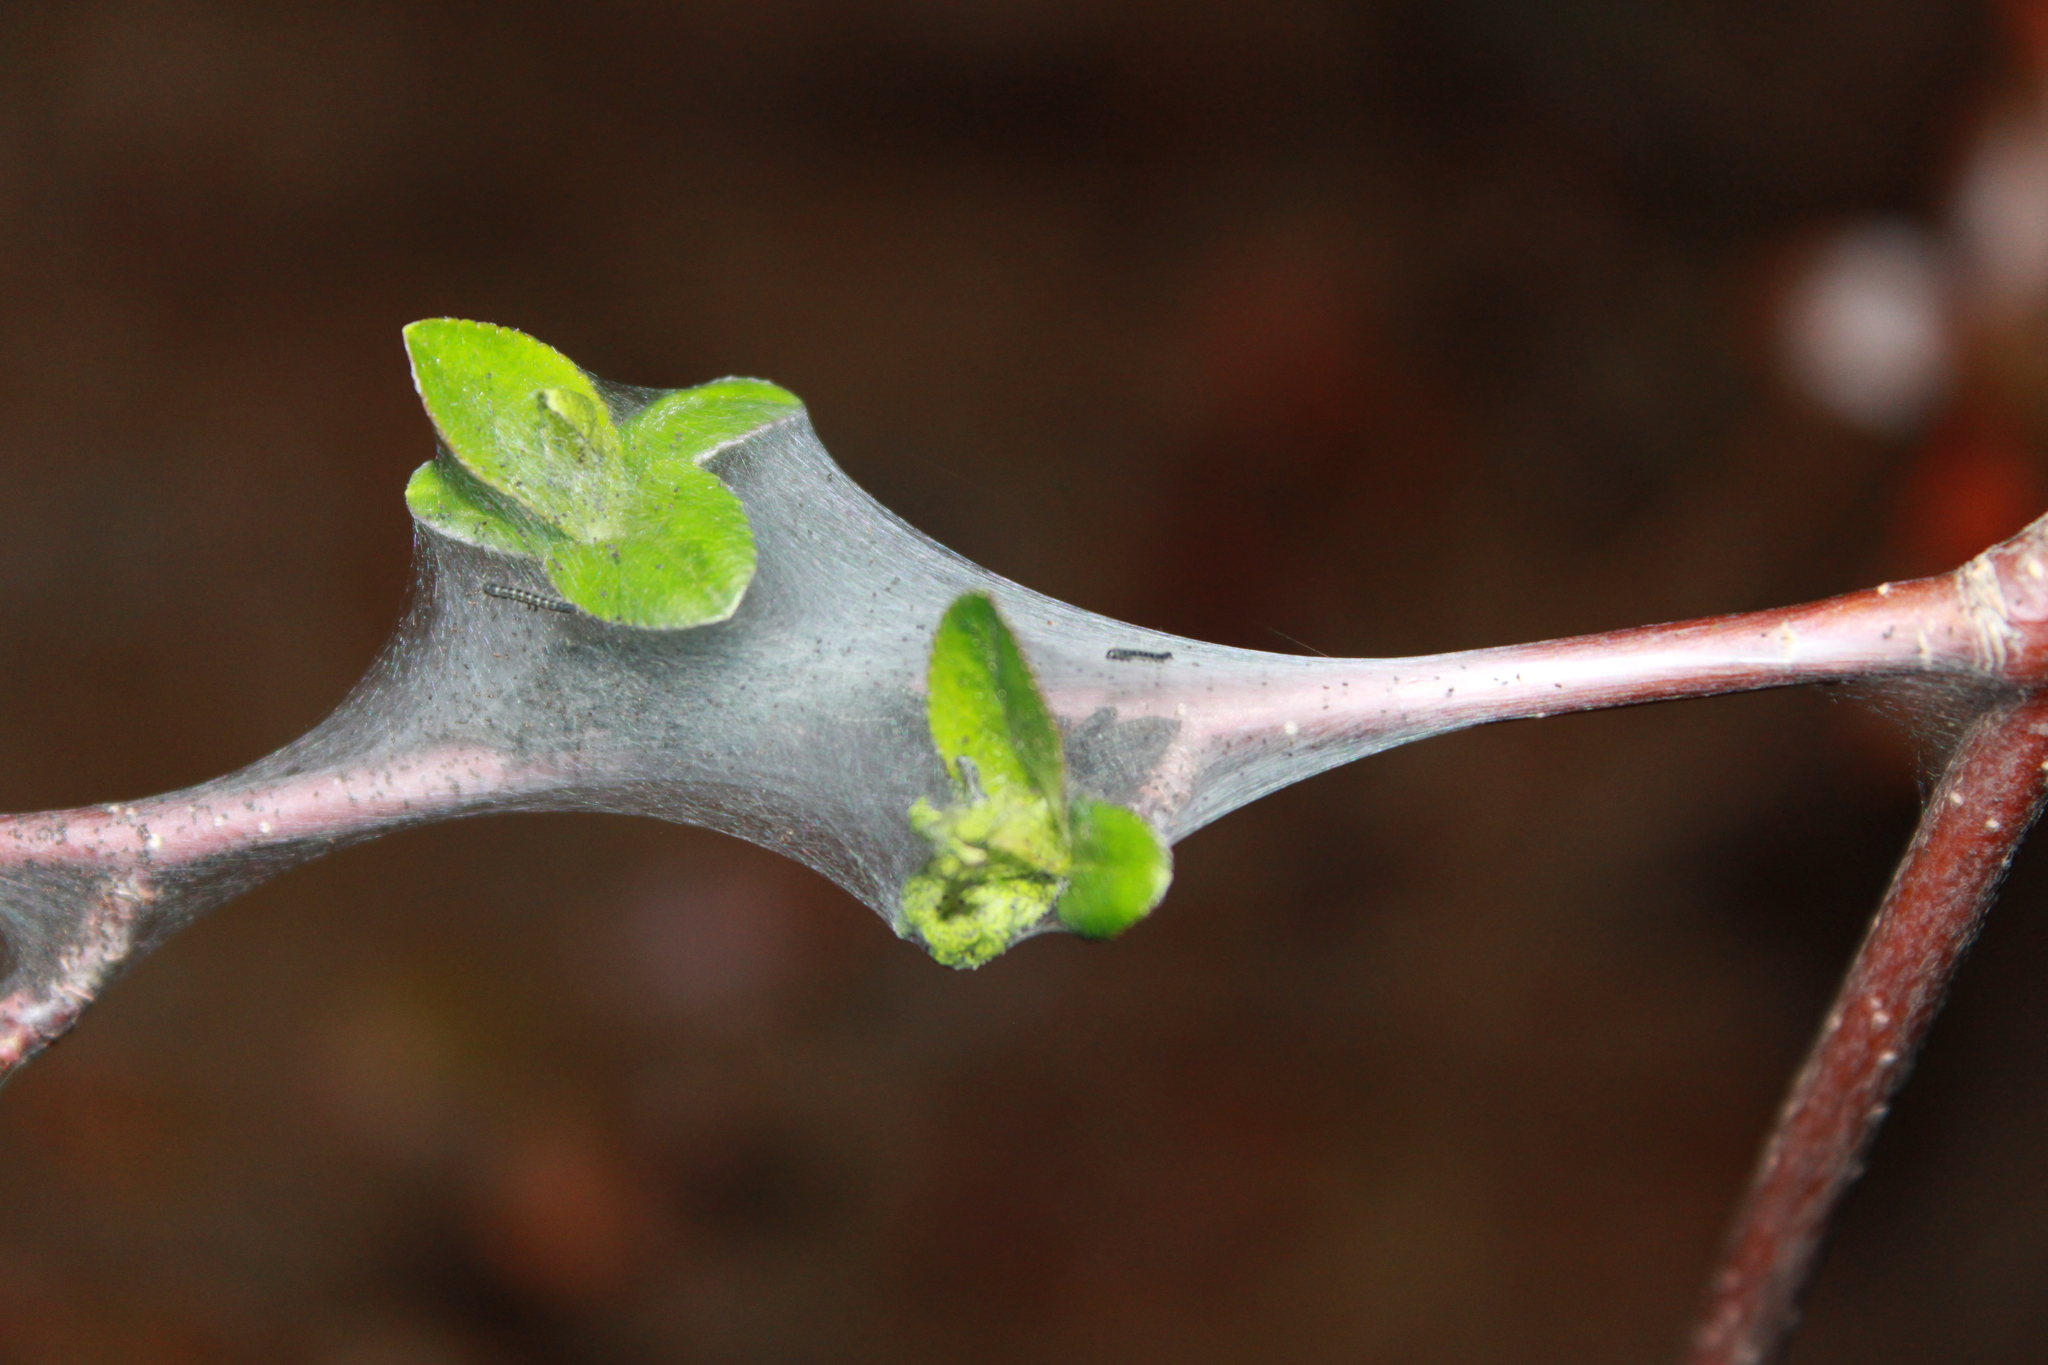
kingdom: Animalia
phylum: Arthropoda
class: Insecta
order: Lepidoptera
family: Lasiocampidae
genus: Malacosoma
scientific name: Malacosoma americana
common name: Eastern tent caterpillar moth
